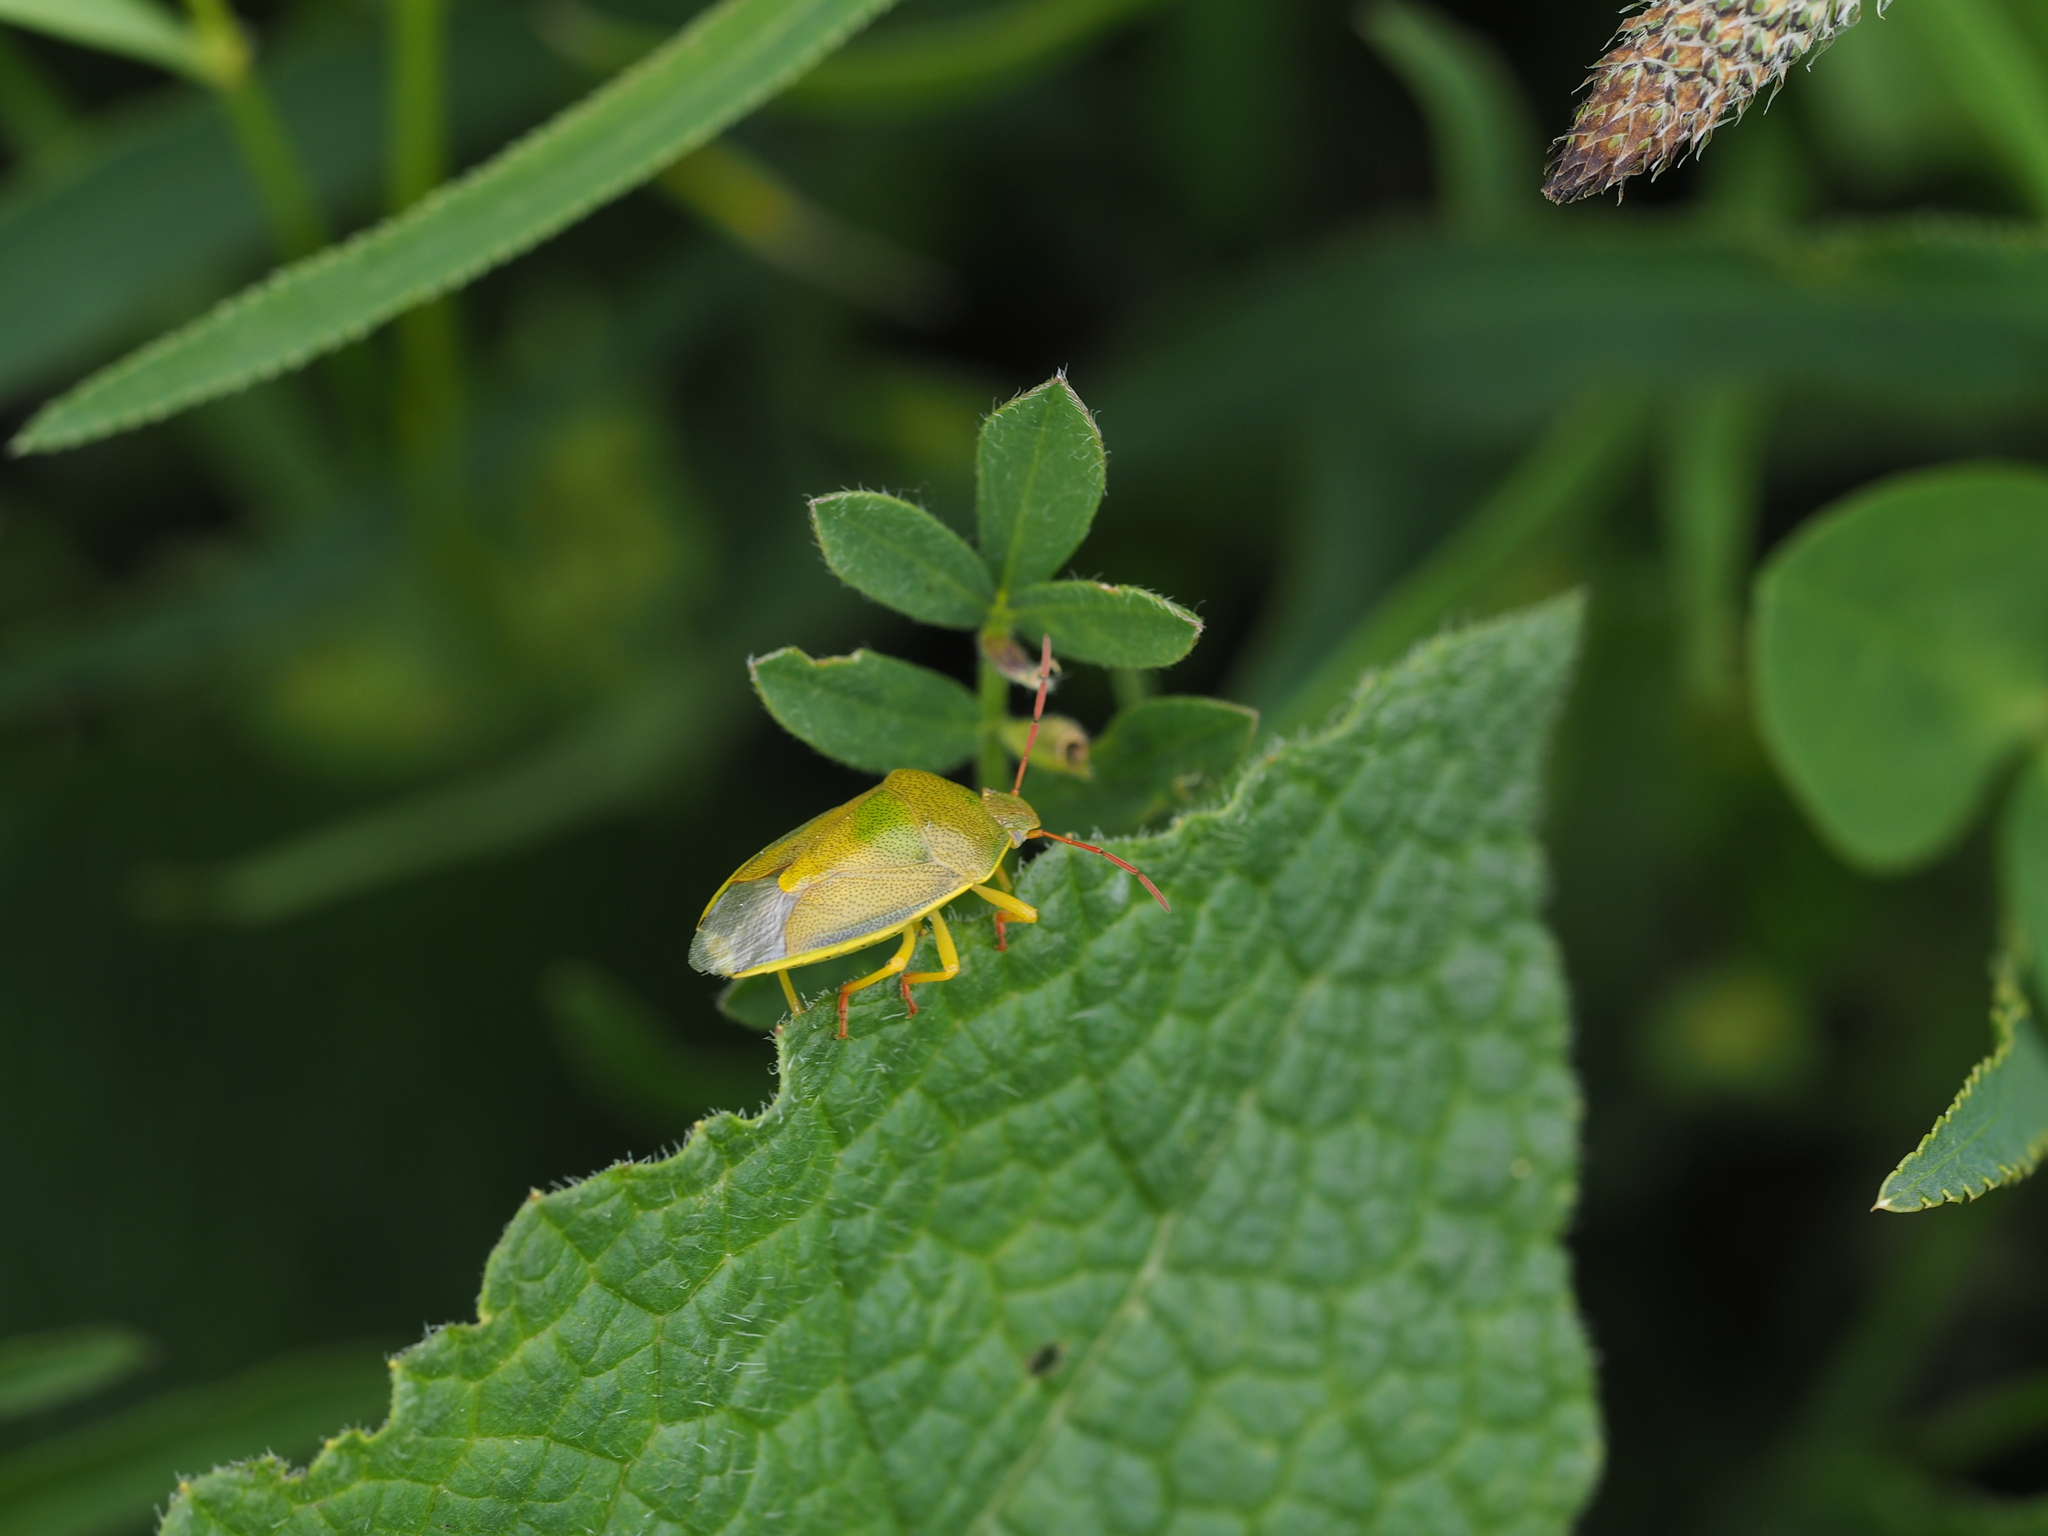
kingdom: Animalia
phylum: Arthropoda
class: Insecta
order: Hemiptera
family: Pentatomidae
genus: Piezodorus
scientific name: Piezodorus lituratus
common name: Stink bug
